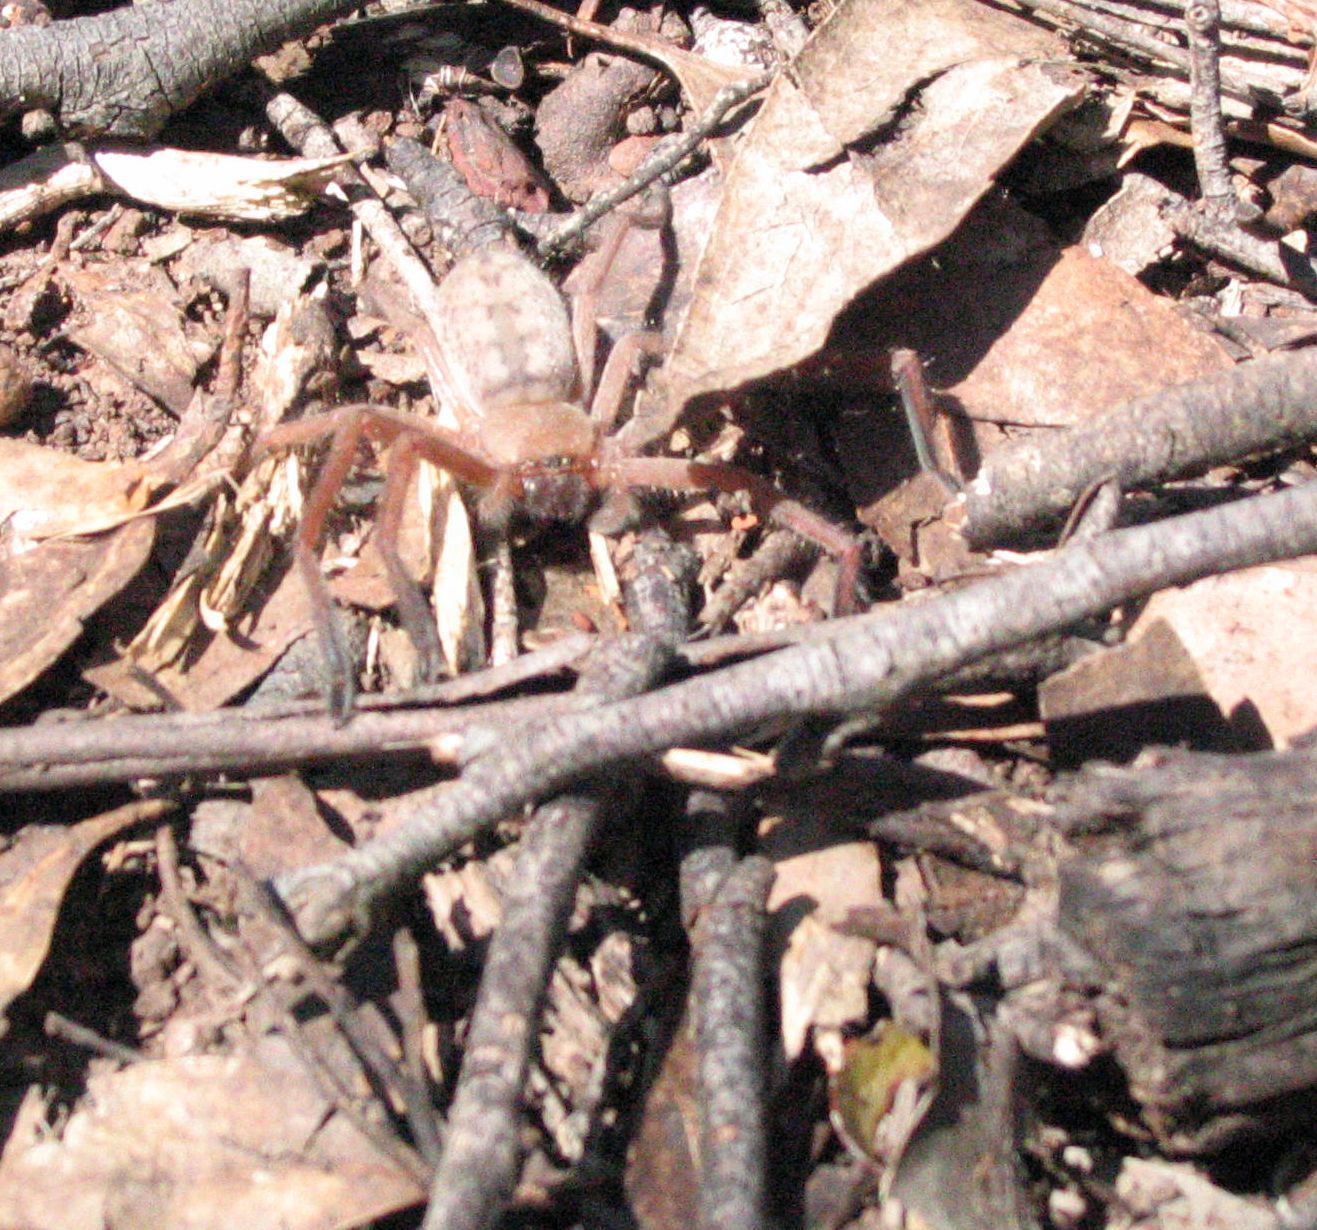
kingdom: Animalia
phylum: Arthropoda
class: Arachnida
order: Araneae
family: Sparassidae
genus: Delena
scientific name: Delena cancerides
